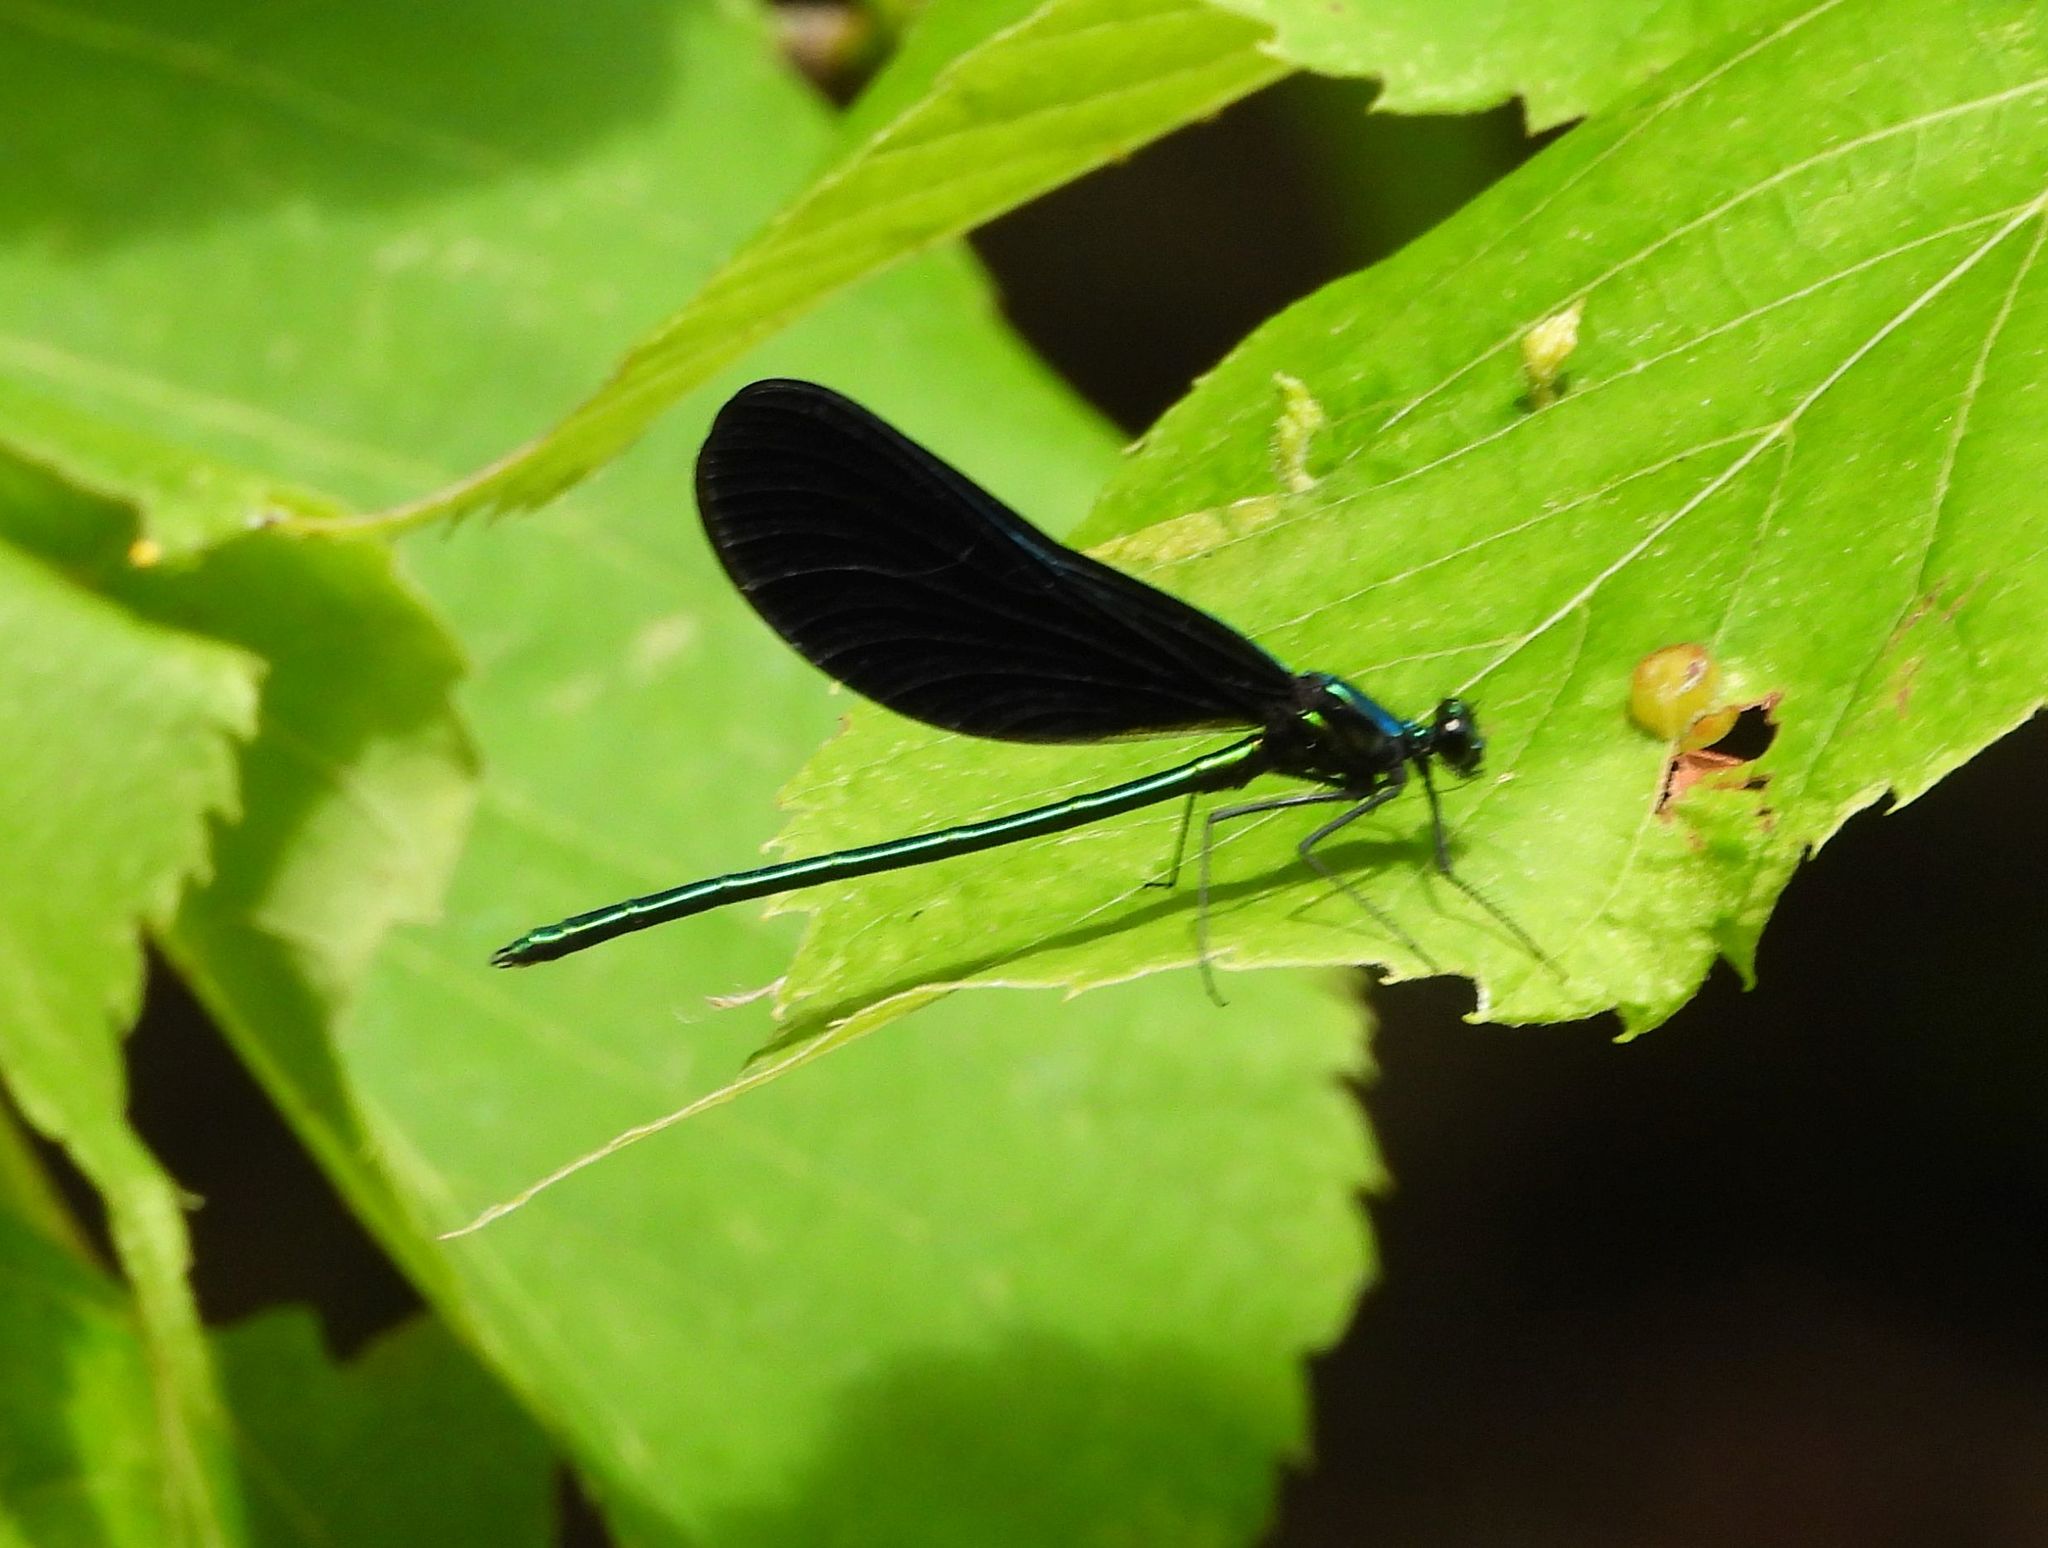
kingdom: Animalia
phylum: Arthropoda
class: Insecta
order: Odonata
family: Calopterygidae
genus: Calopteryx
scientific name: Calopteryx maculata
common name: Ebony jewelwing
